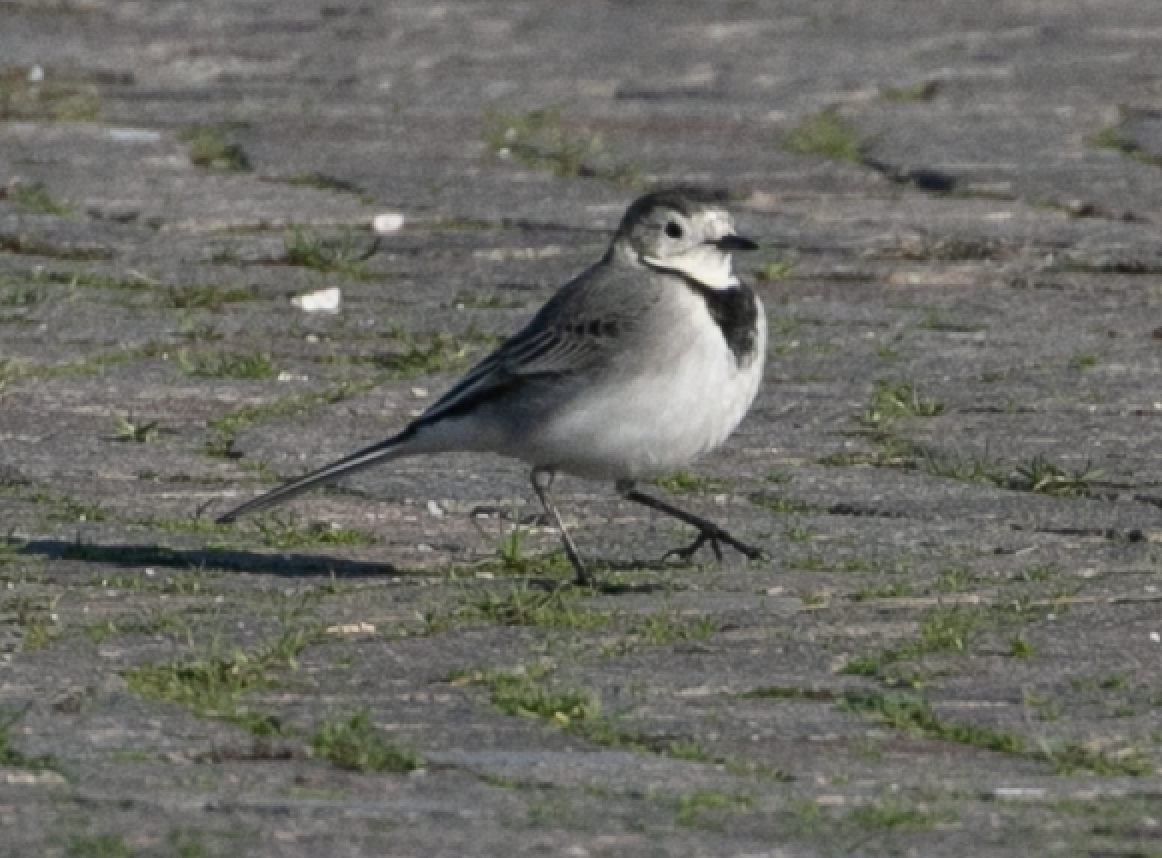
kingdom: Animalia
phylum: Chordata
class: Aves
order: Passeriformes
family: Motacillidae
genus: Motacilla
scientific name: Motacilla alba
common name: White wagtail
